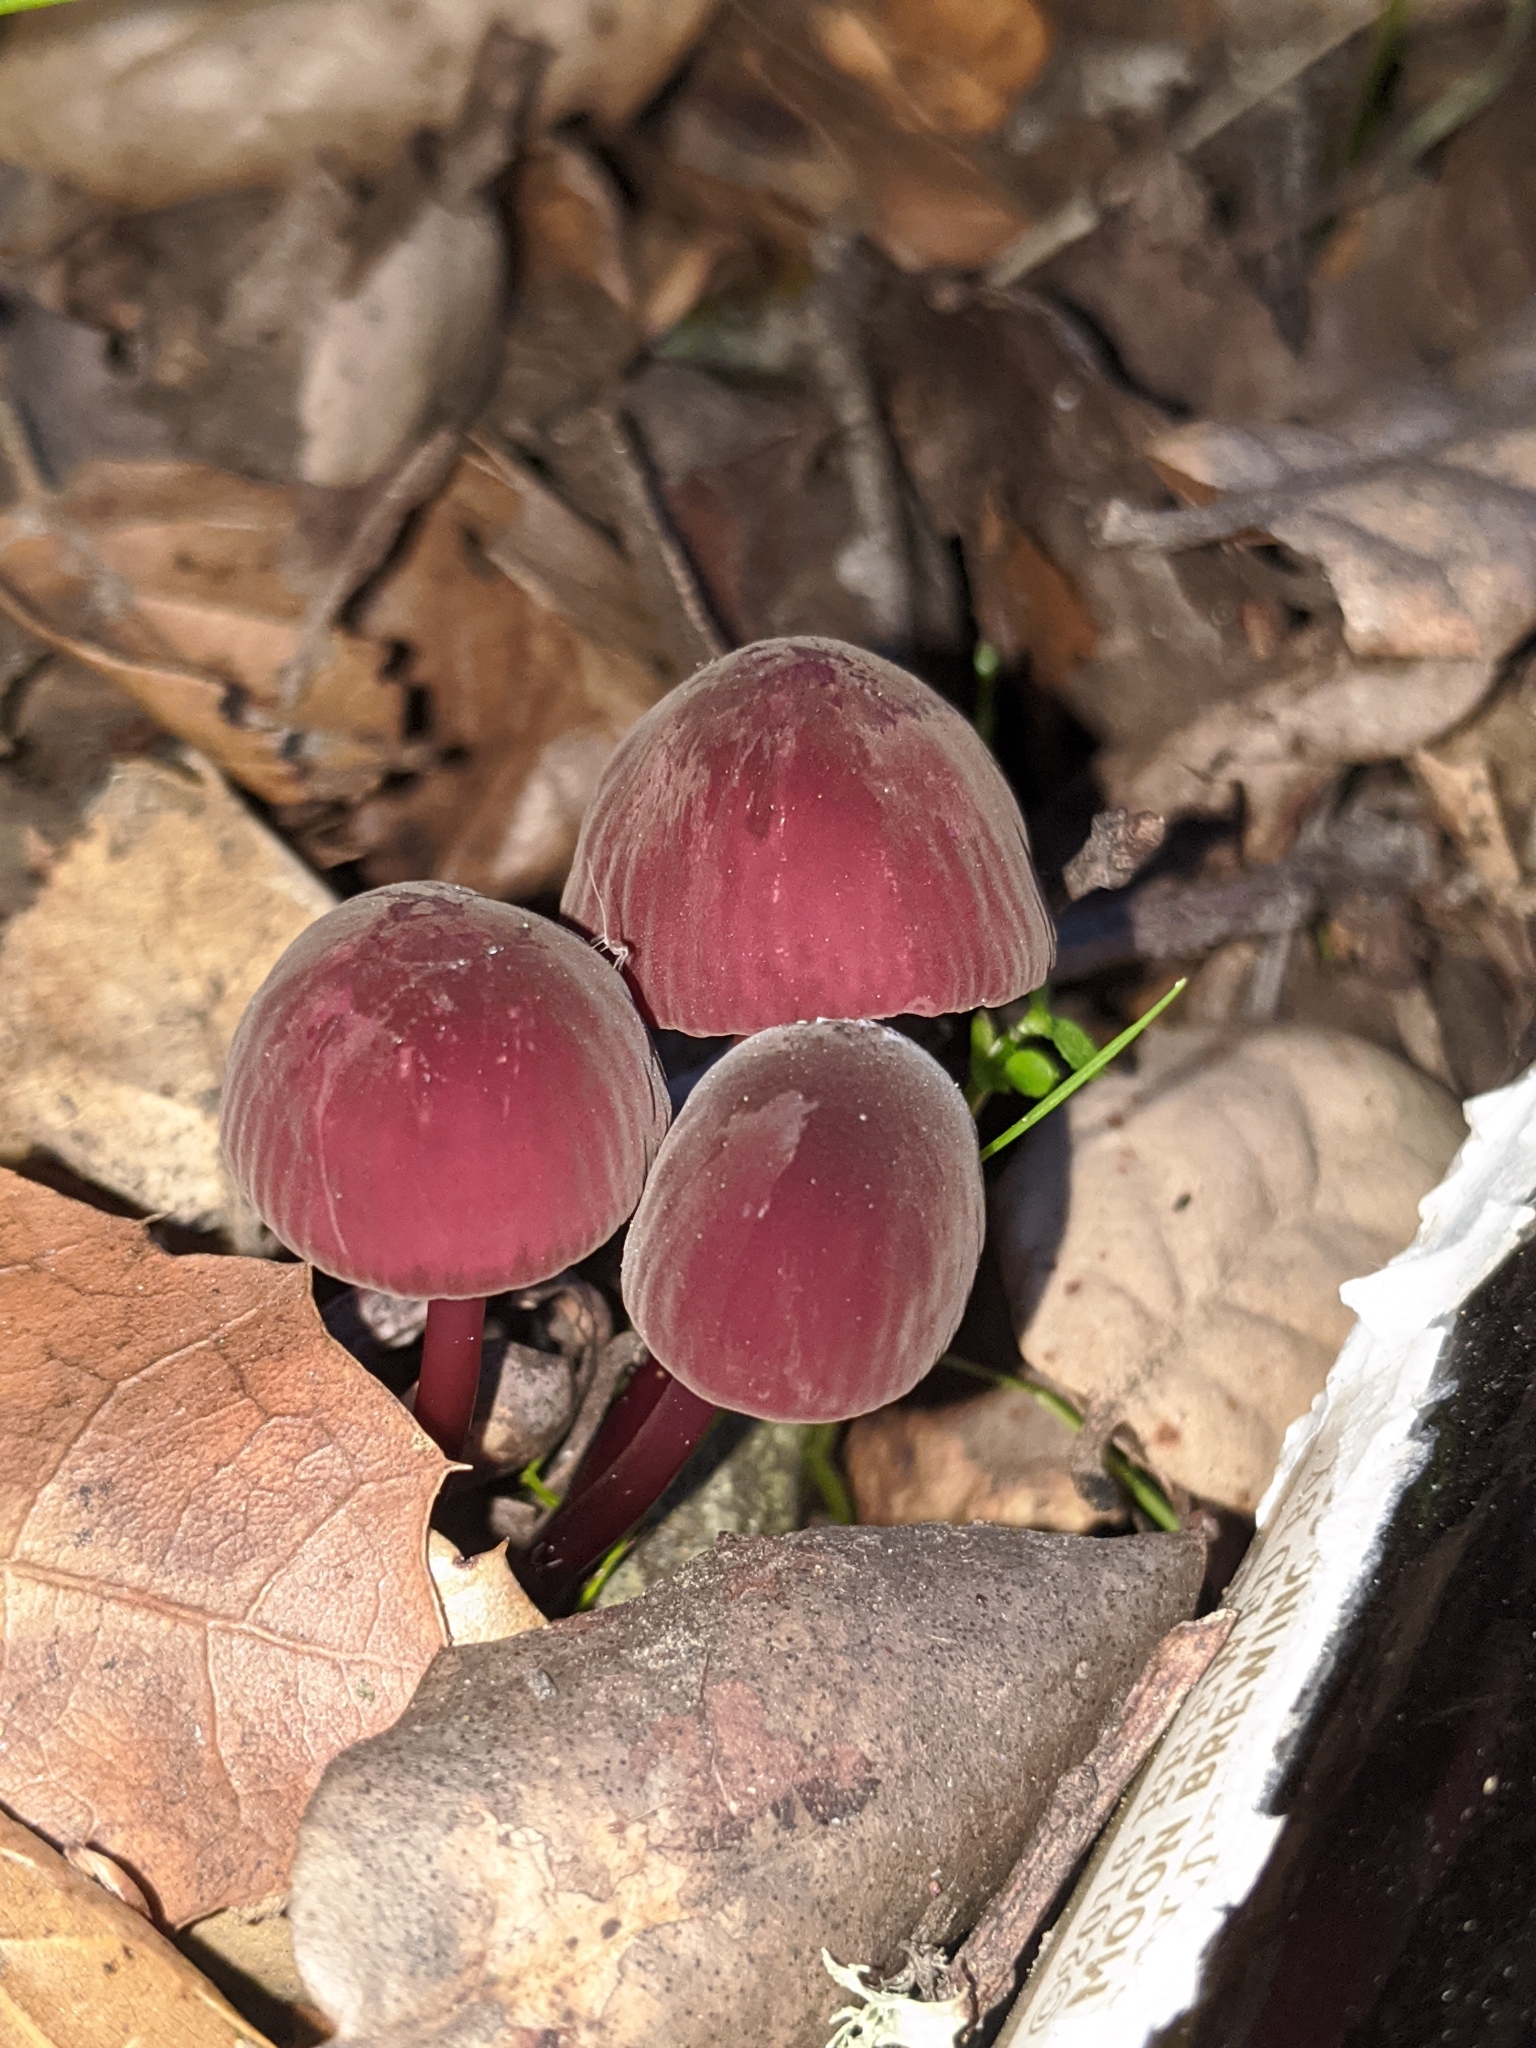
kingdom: Fungi
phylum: Basidiomycota
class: Agaricomycetes
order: Agaricales
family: Marasmiaceae
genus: Marasmius
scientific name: Marasmius plicatulus
